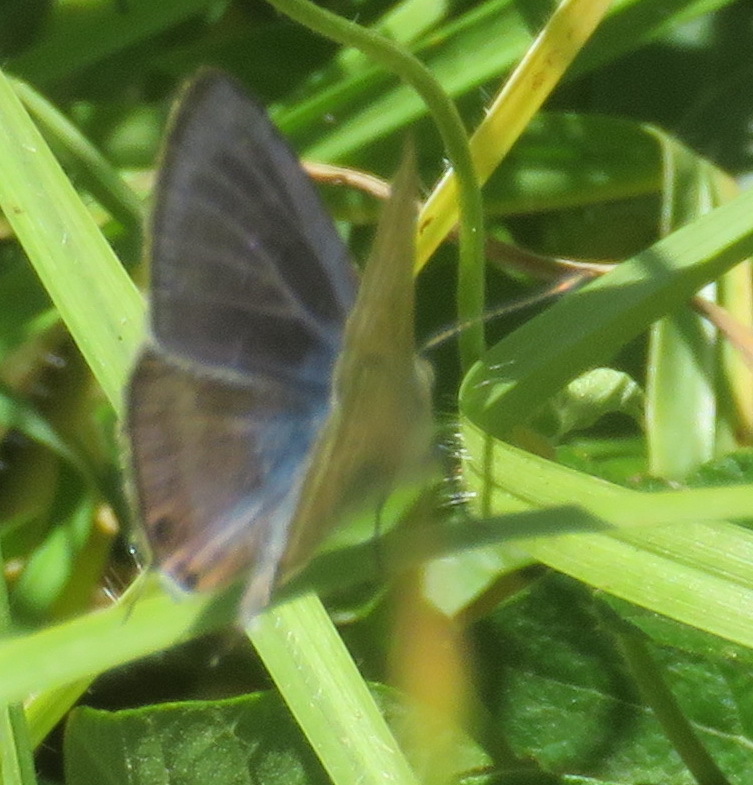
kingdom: Animalia
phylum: Arthropoda
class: Insecta
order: Lepidoptera
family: Lycaenidae
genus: Lampides
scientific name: Lampides boeticus
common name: Long-tailed blue
